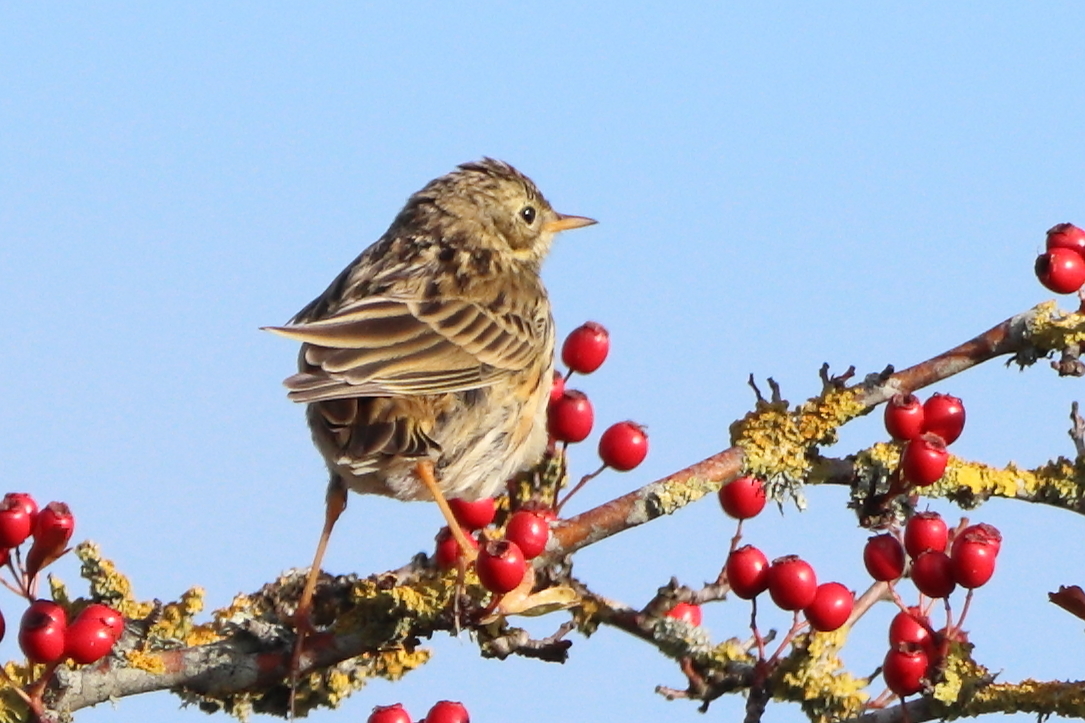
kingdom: Animalia
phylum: Chordata
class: Aves
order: Passeriformes
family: Motacillidae
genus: Anthus
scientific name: Anthus pratensis
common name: Meadow pipit
